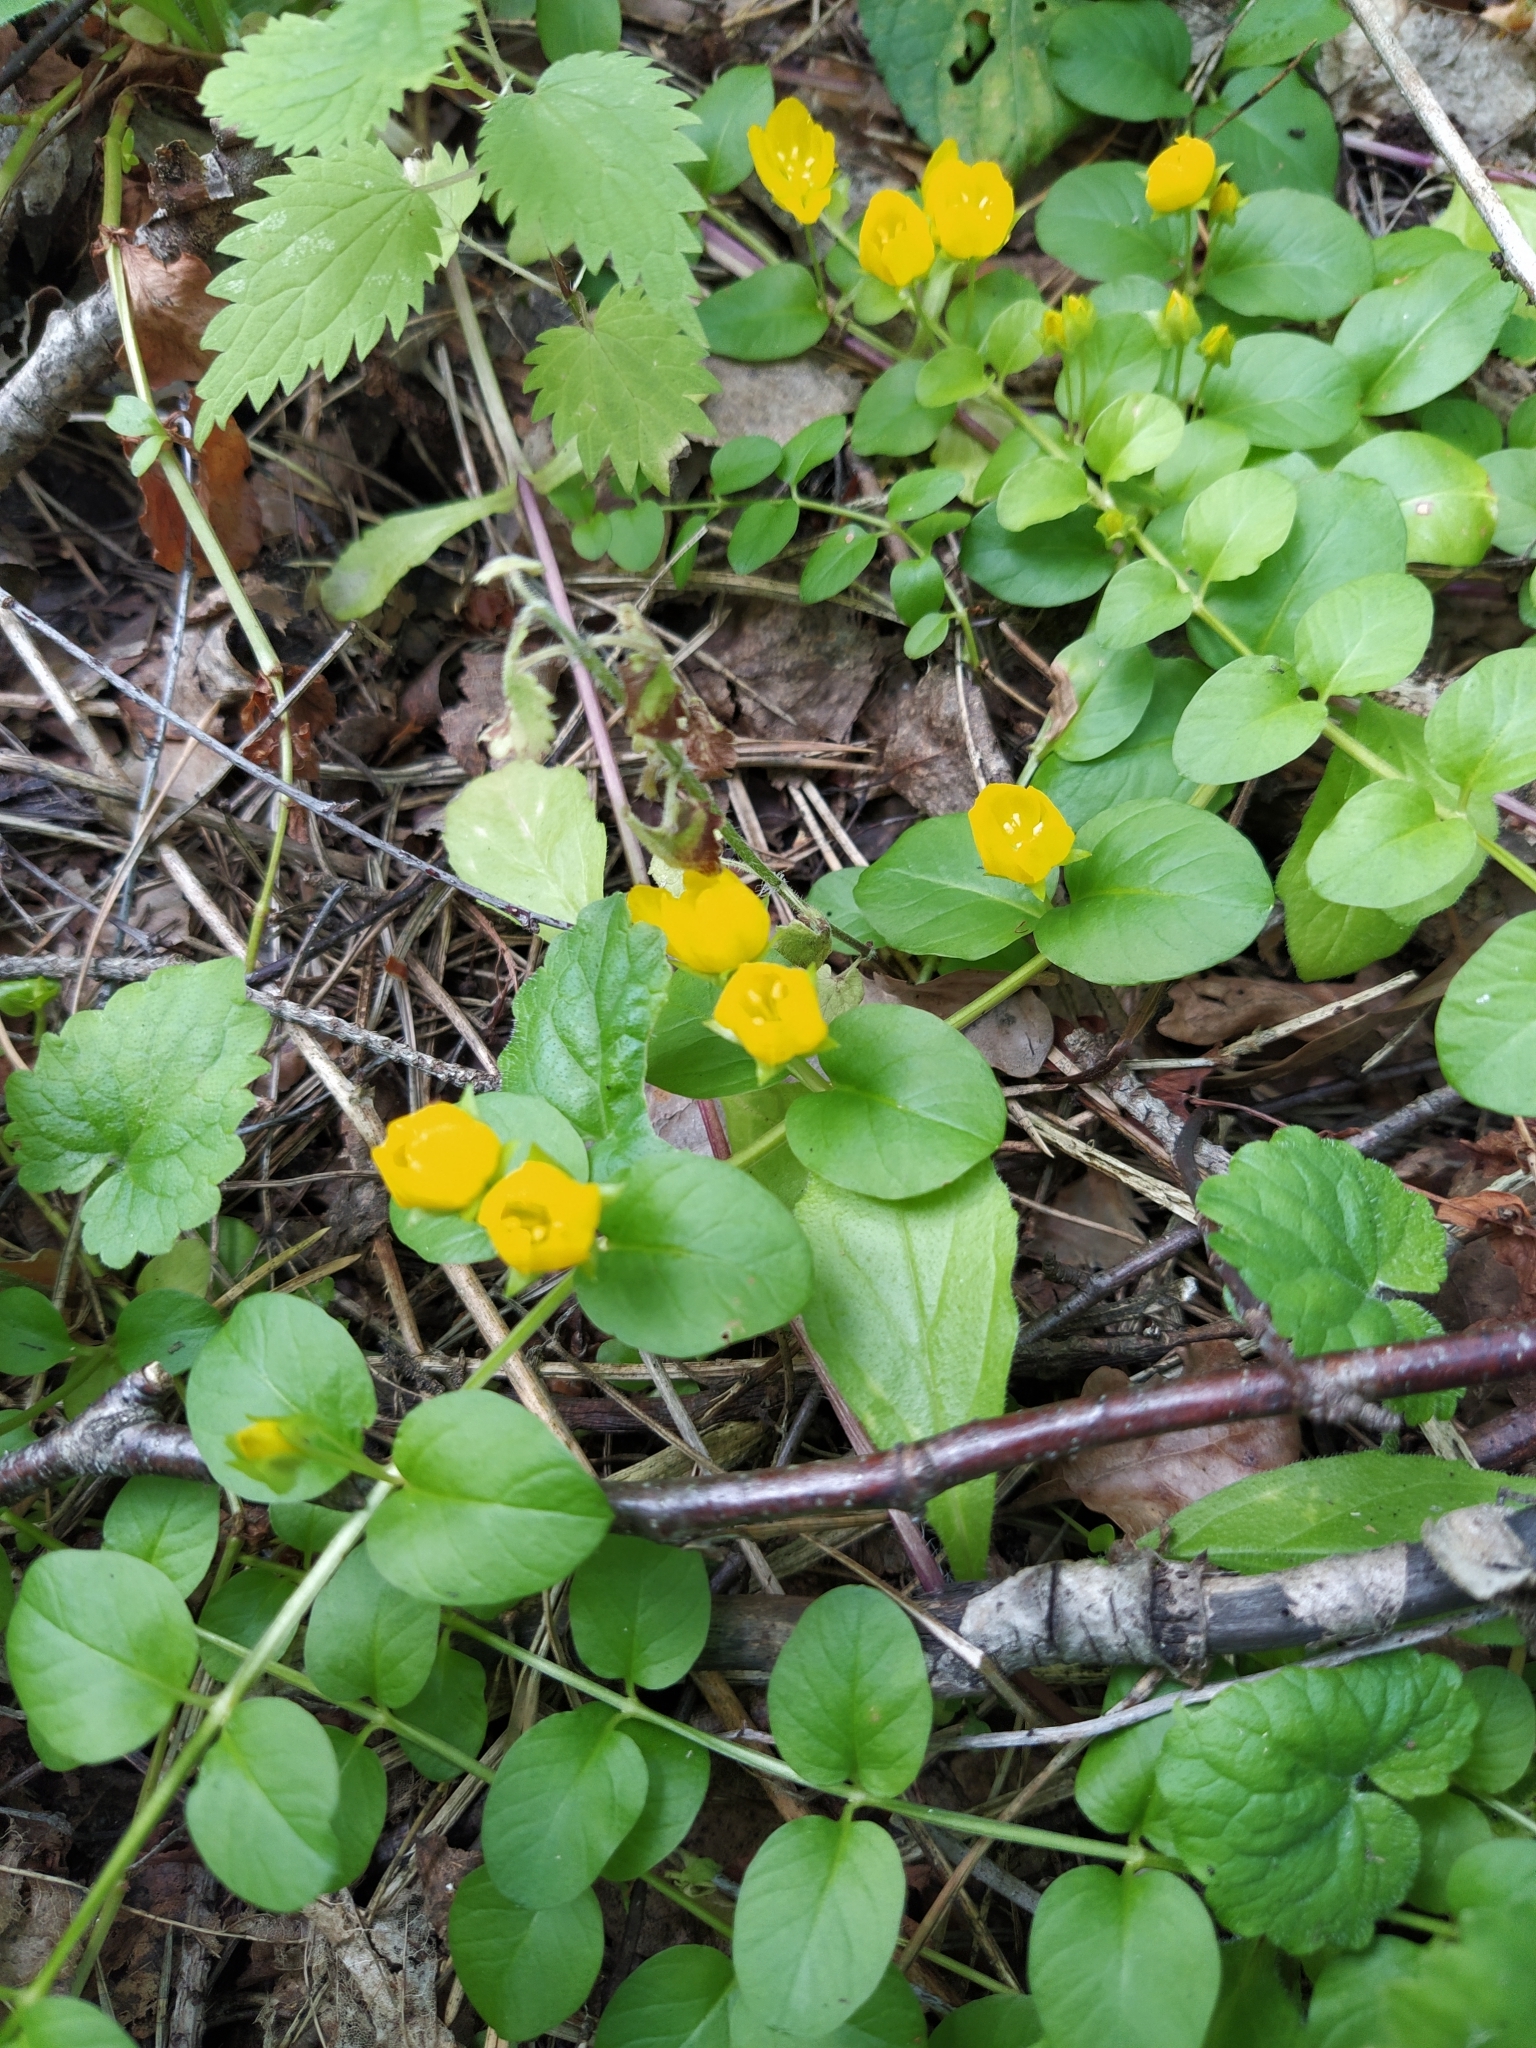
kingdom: Plantae
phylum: Tracheophyta
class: Magnoliopsida
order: Ericales
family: Primulaceae
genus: Lysimachia
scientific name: Lysimachia nummularia
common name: Moneywort
